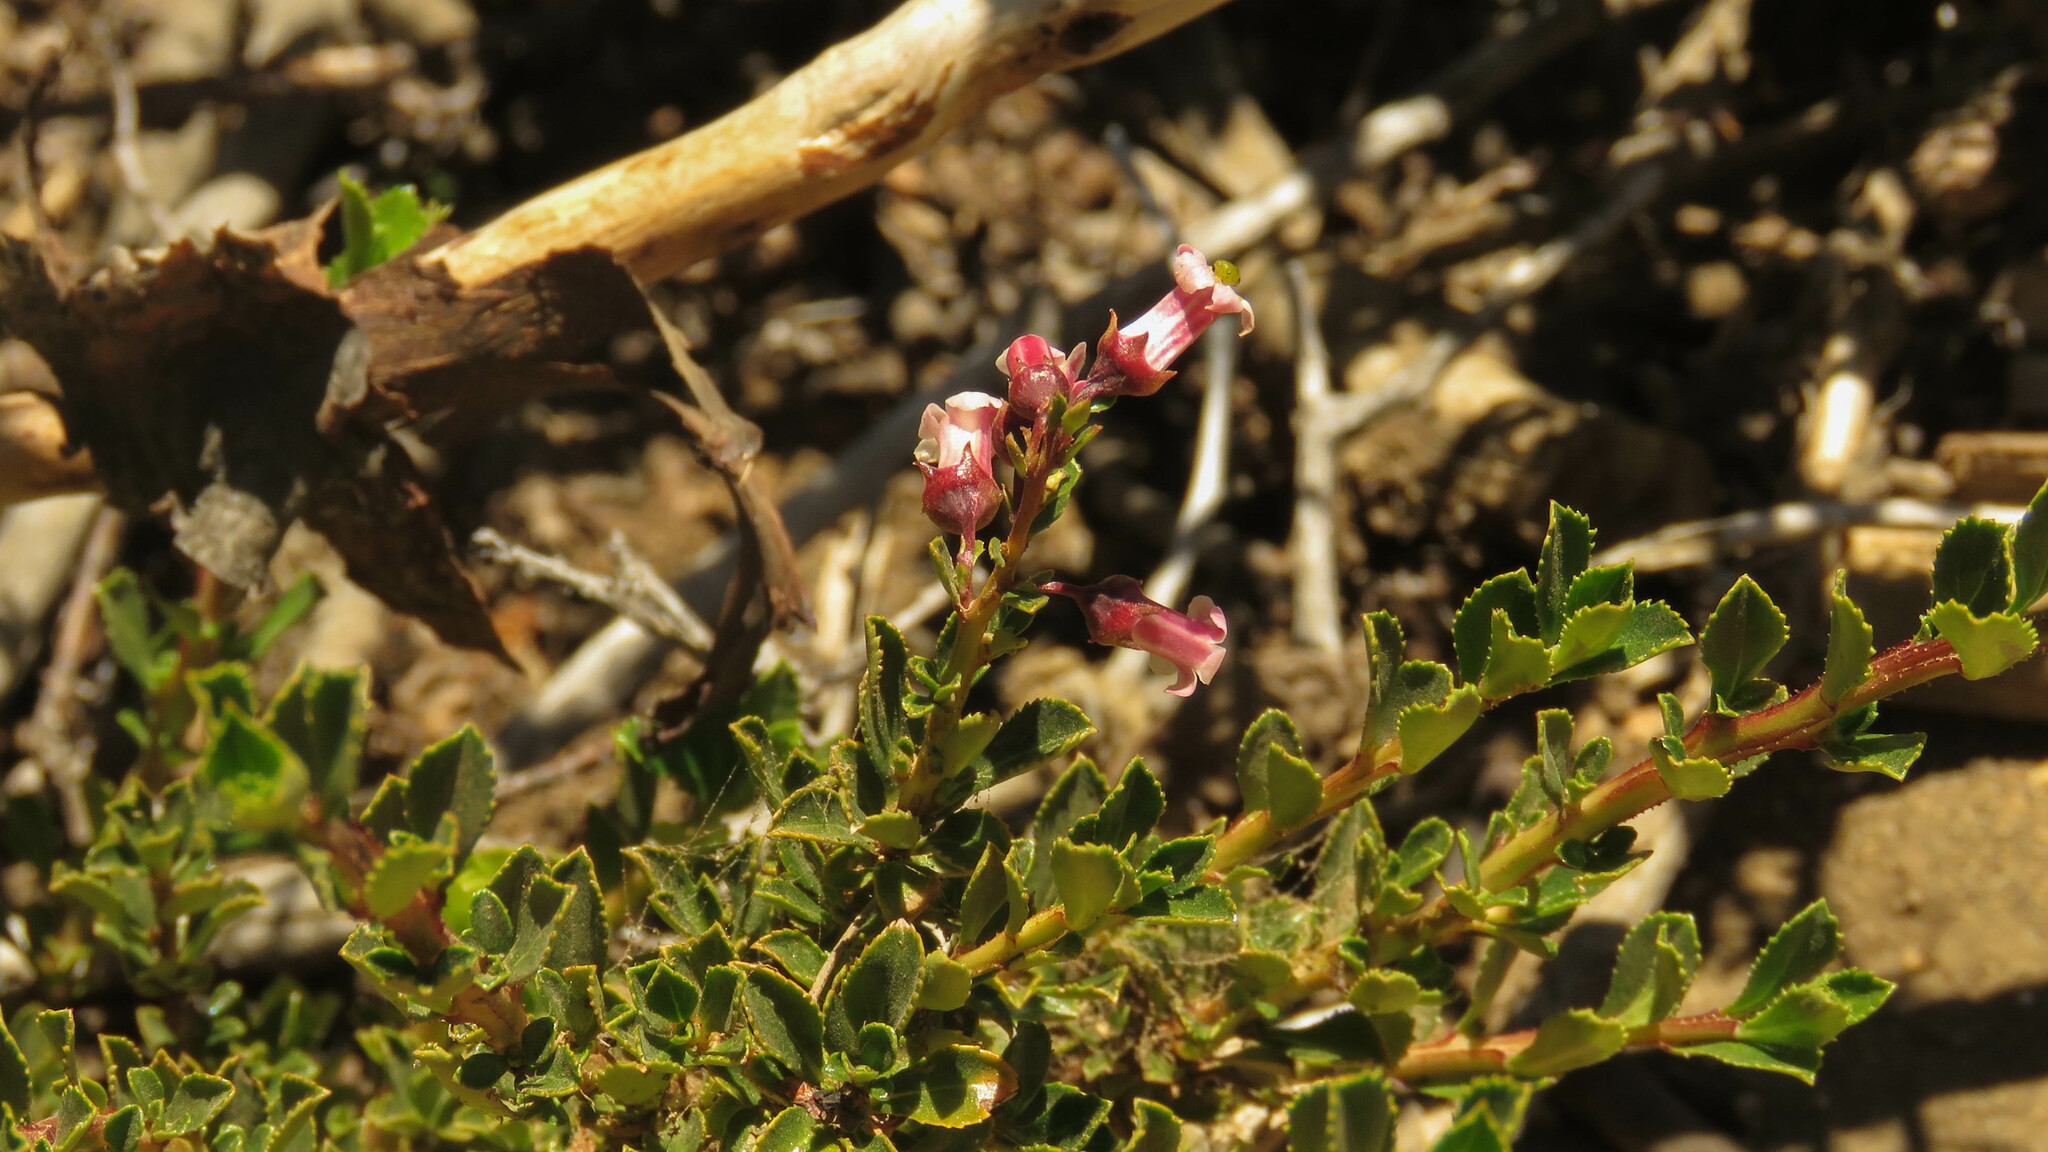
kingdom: Plantae
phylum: Tracheophyta
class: Magnoliopsida
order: Escalloniales
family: Escalloniaceae
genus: Escallonia
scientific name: Escallonia alpina
